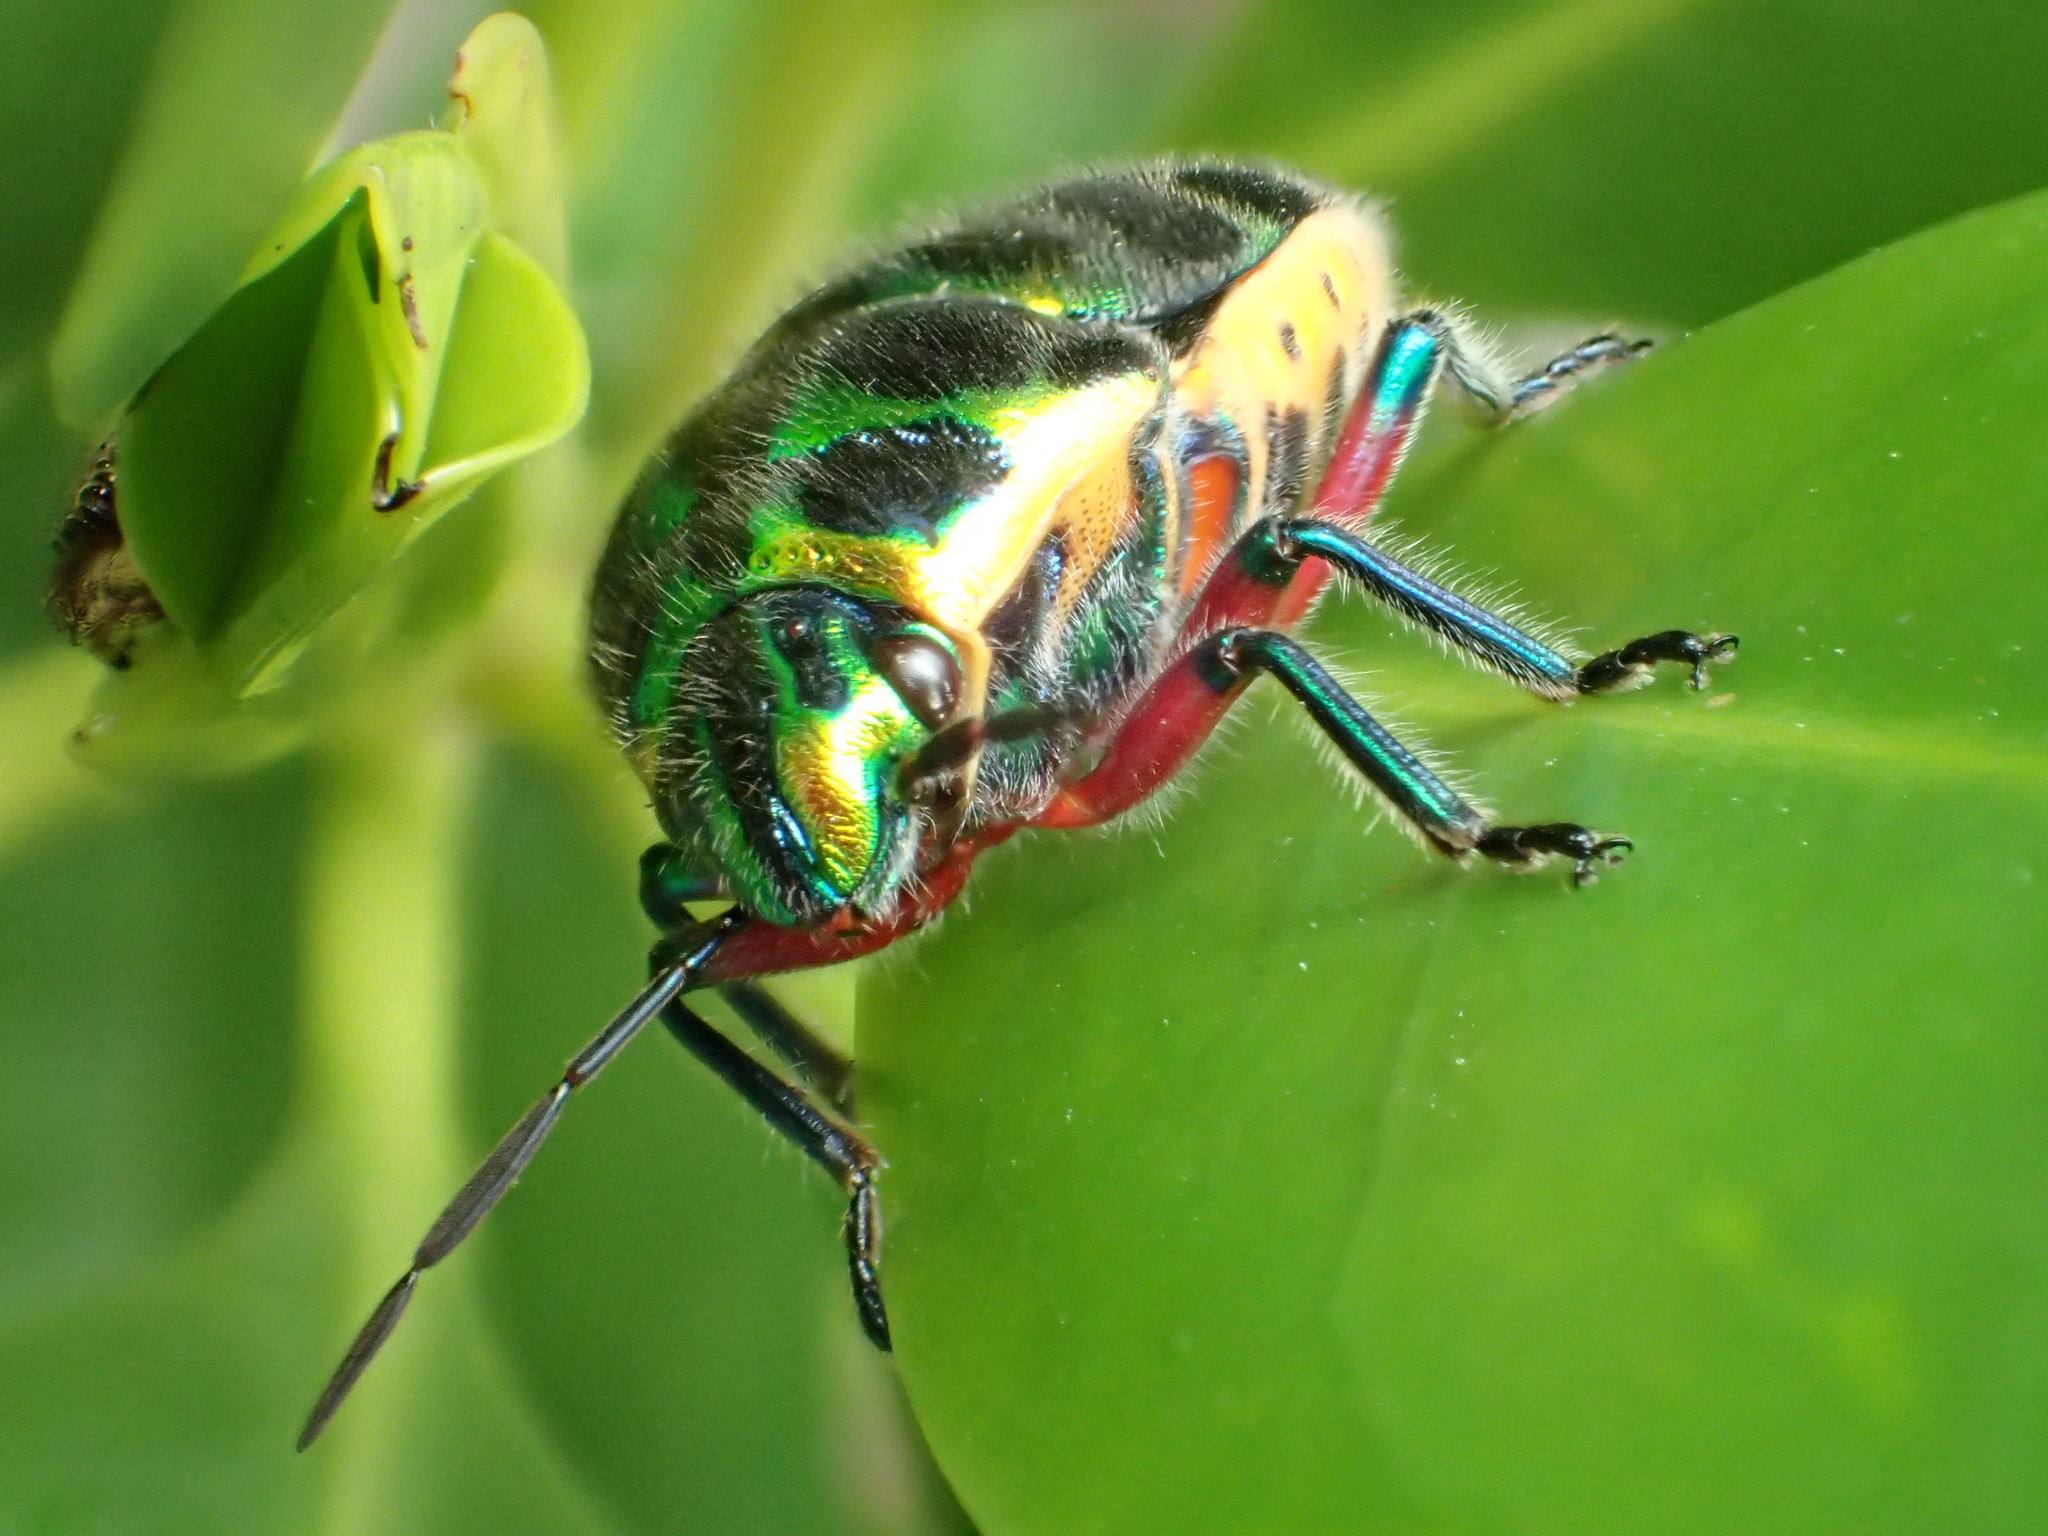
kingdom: Animalia
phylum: Arthropoda
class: Insecta
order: Hemiptera
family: Scutelleridae
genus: Scutellera
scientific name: Scutellera nepalensis
